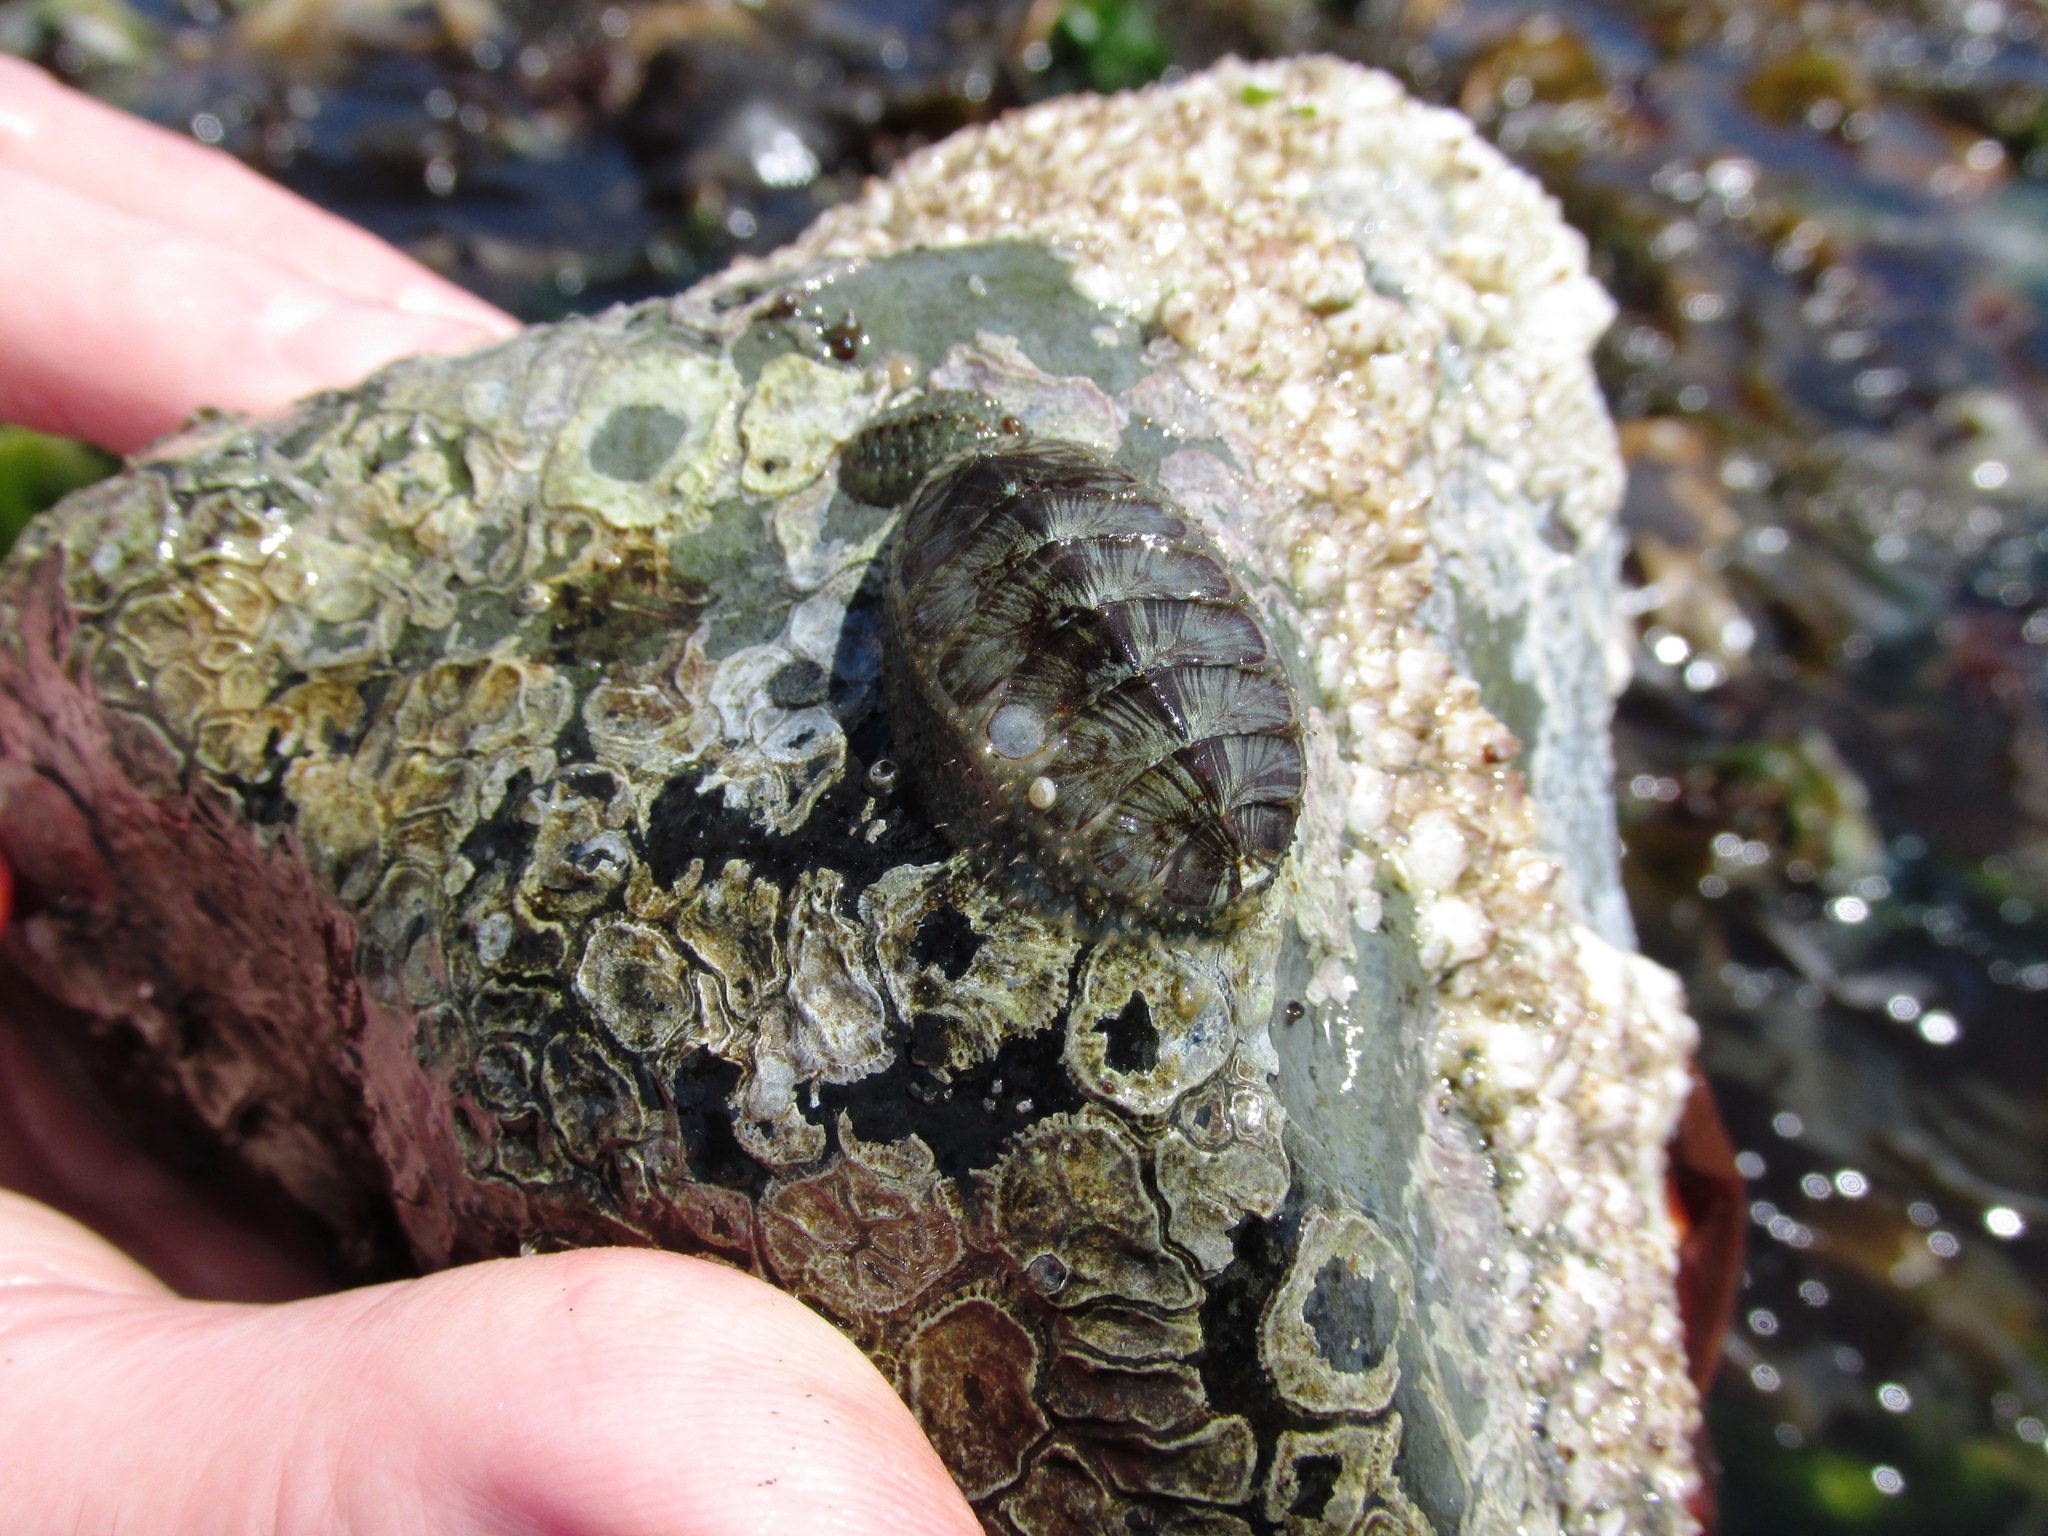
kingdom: Animalia
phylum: Mollusca
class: Polyplacophora
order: Chitonida
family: Mopaliidae
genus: Mopalia
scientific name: Mopalia lignosa
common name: Woody chiton
